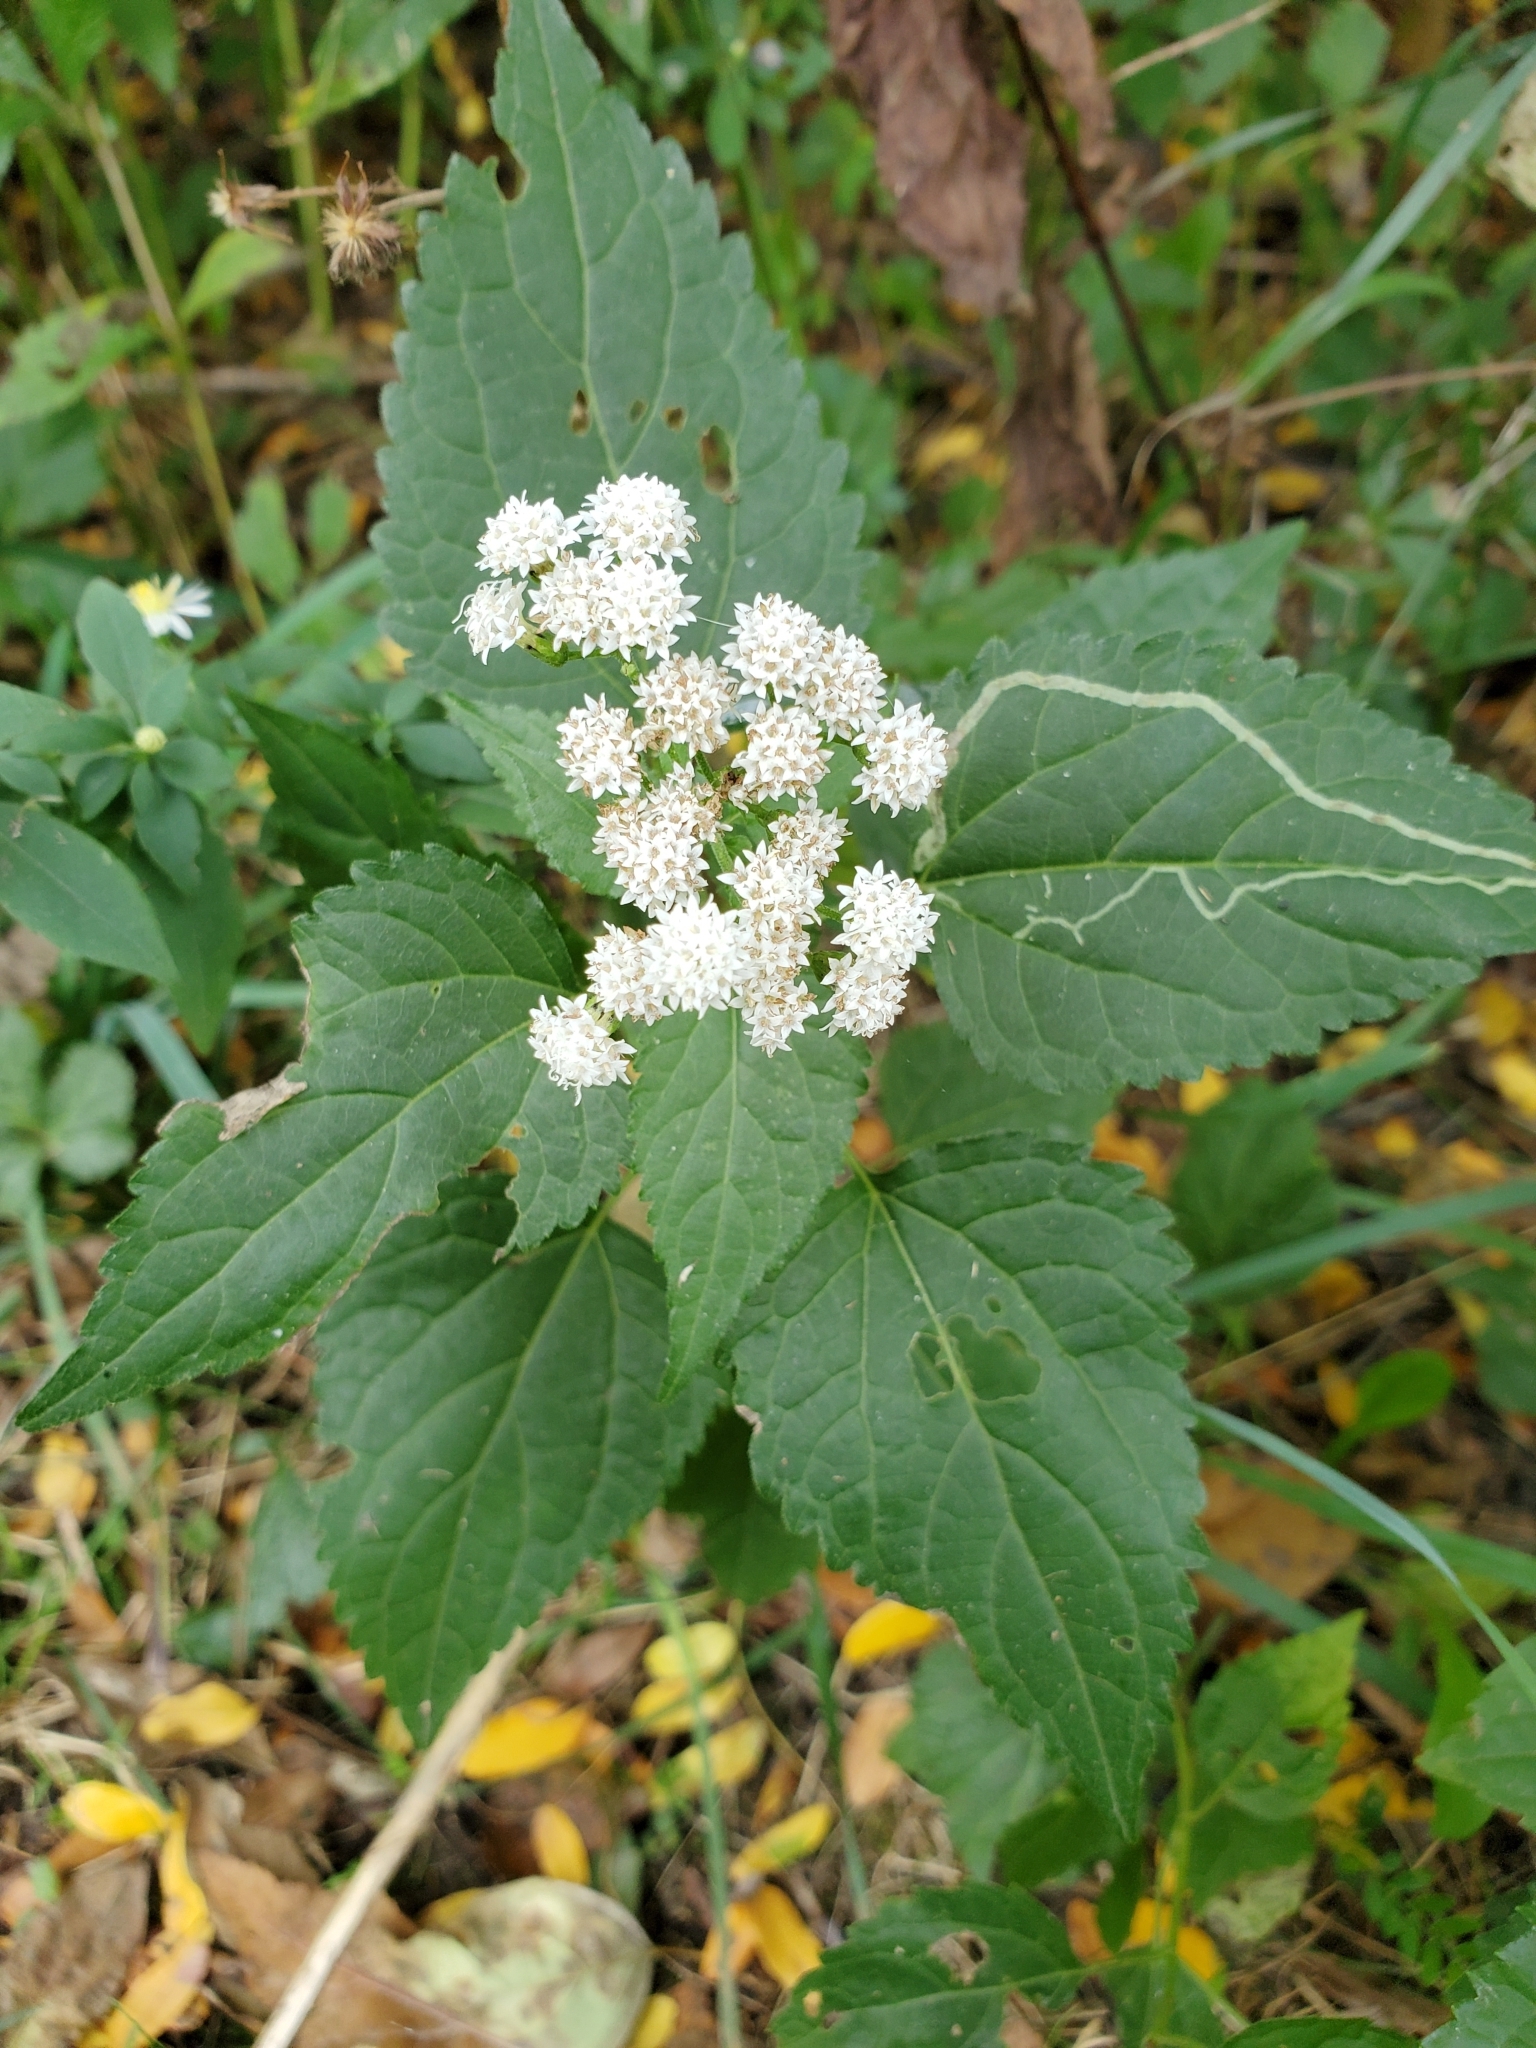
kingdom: Plantae
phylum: Tracheophyta
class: Magnoliopsida
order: Asterales
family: Asteraceae
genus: Ageratina
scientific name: Ageratina altissima
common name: White snakeroot
